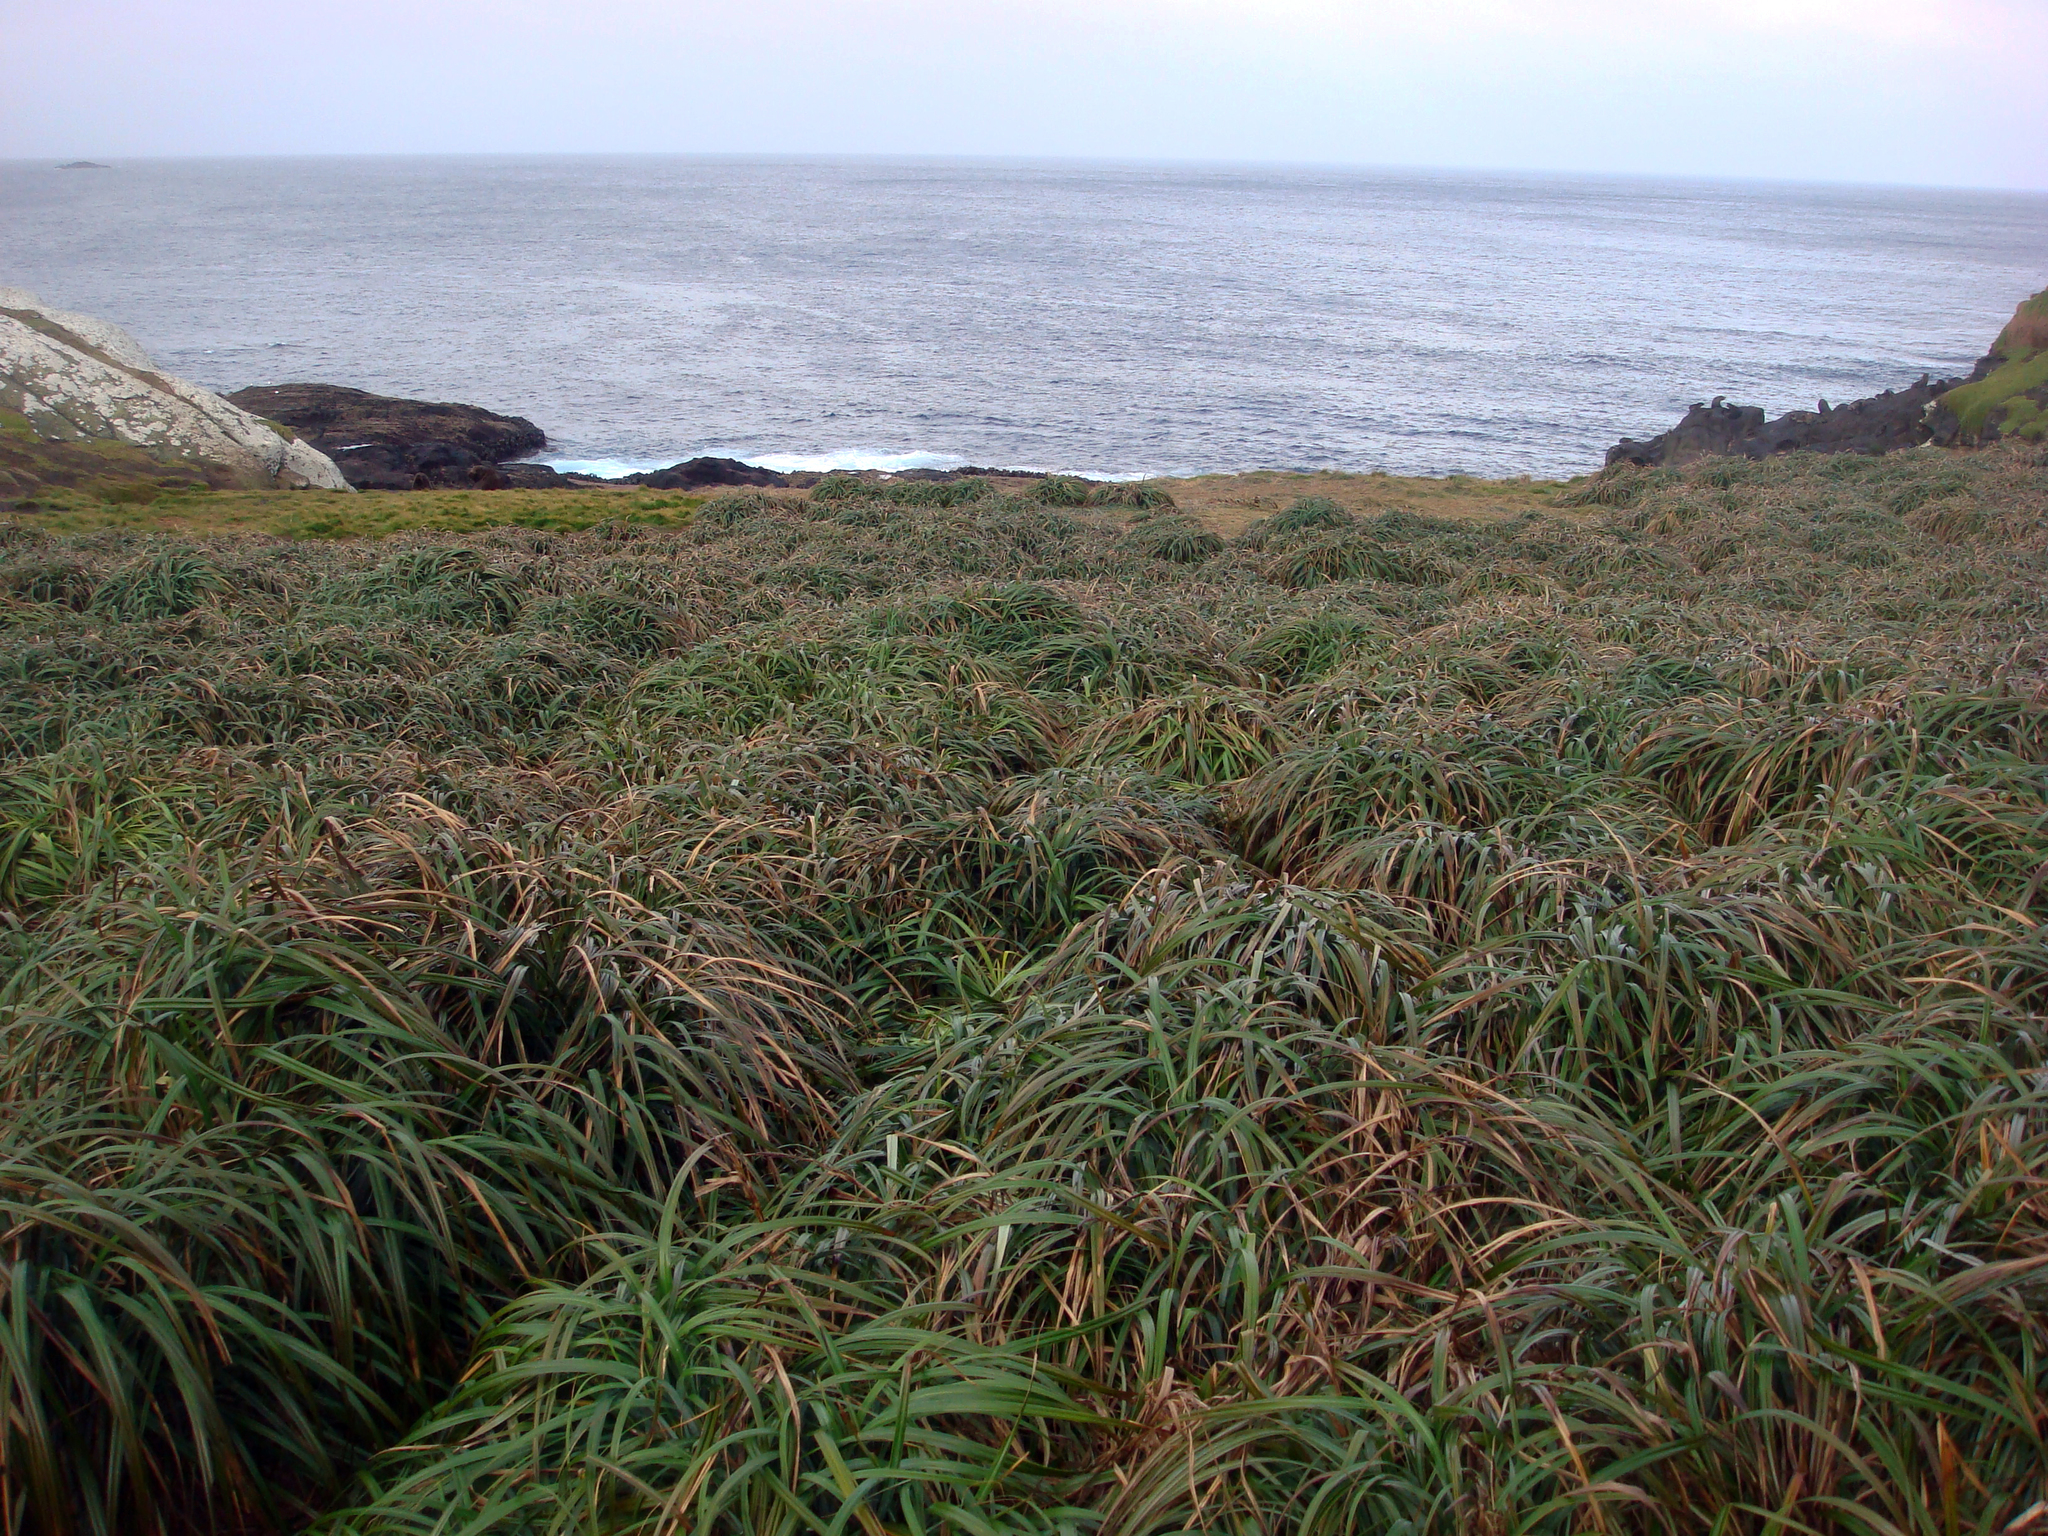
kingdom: Plantae
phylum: Tracheophyta
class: Liliopsida
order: Poales
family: Cyperaceae
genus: Carex
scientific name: Carex trifida
